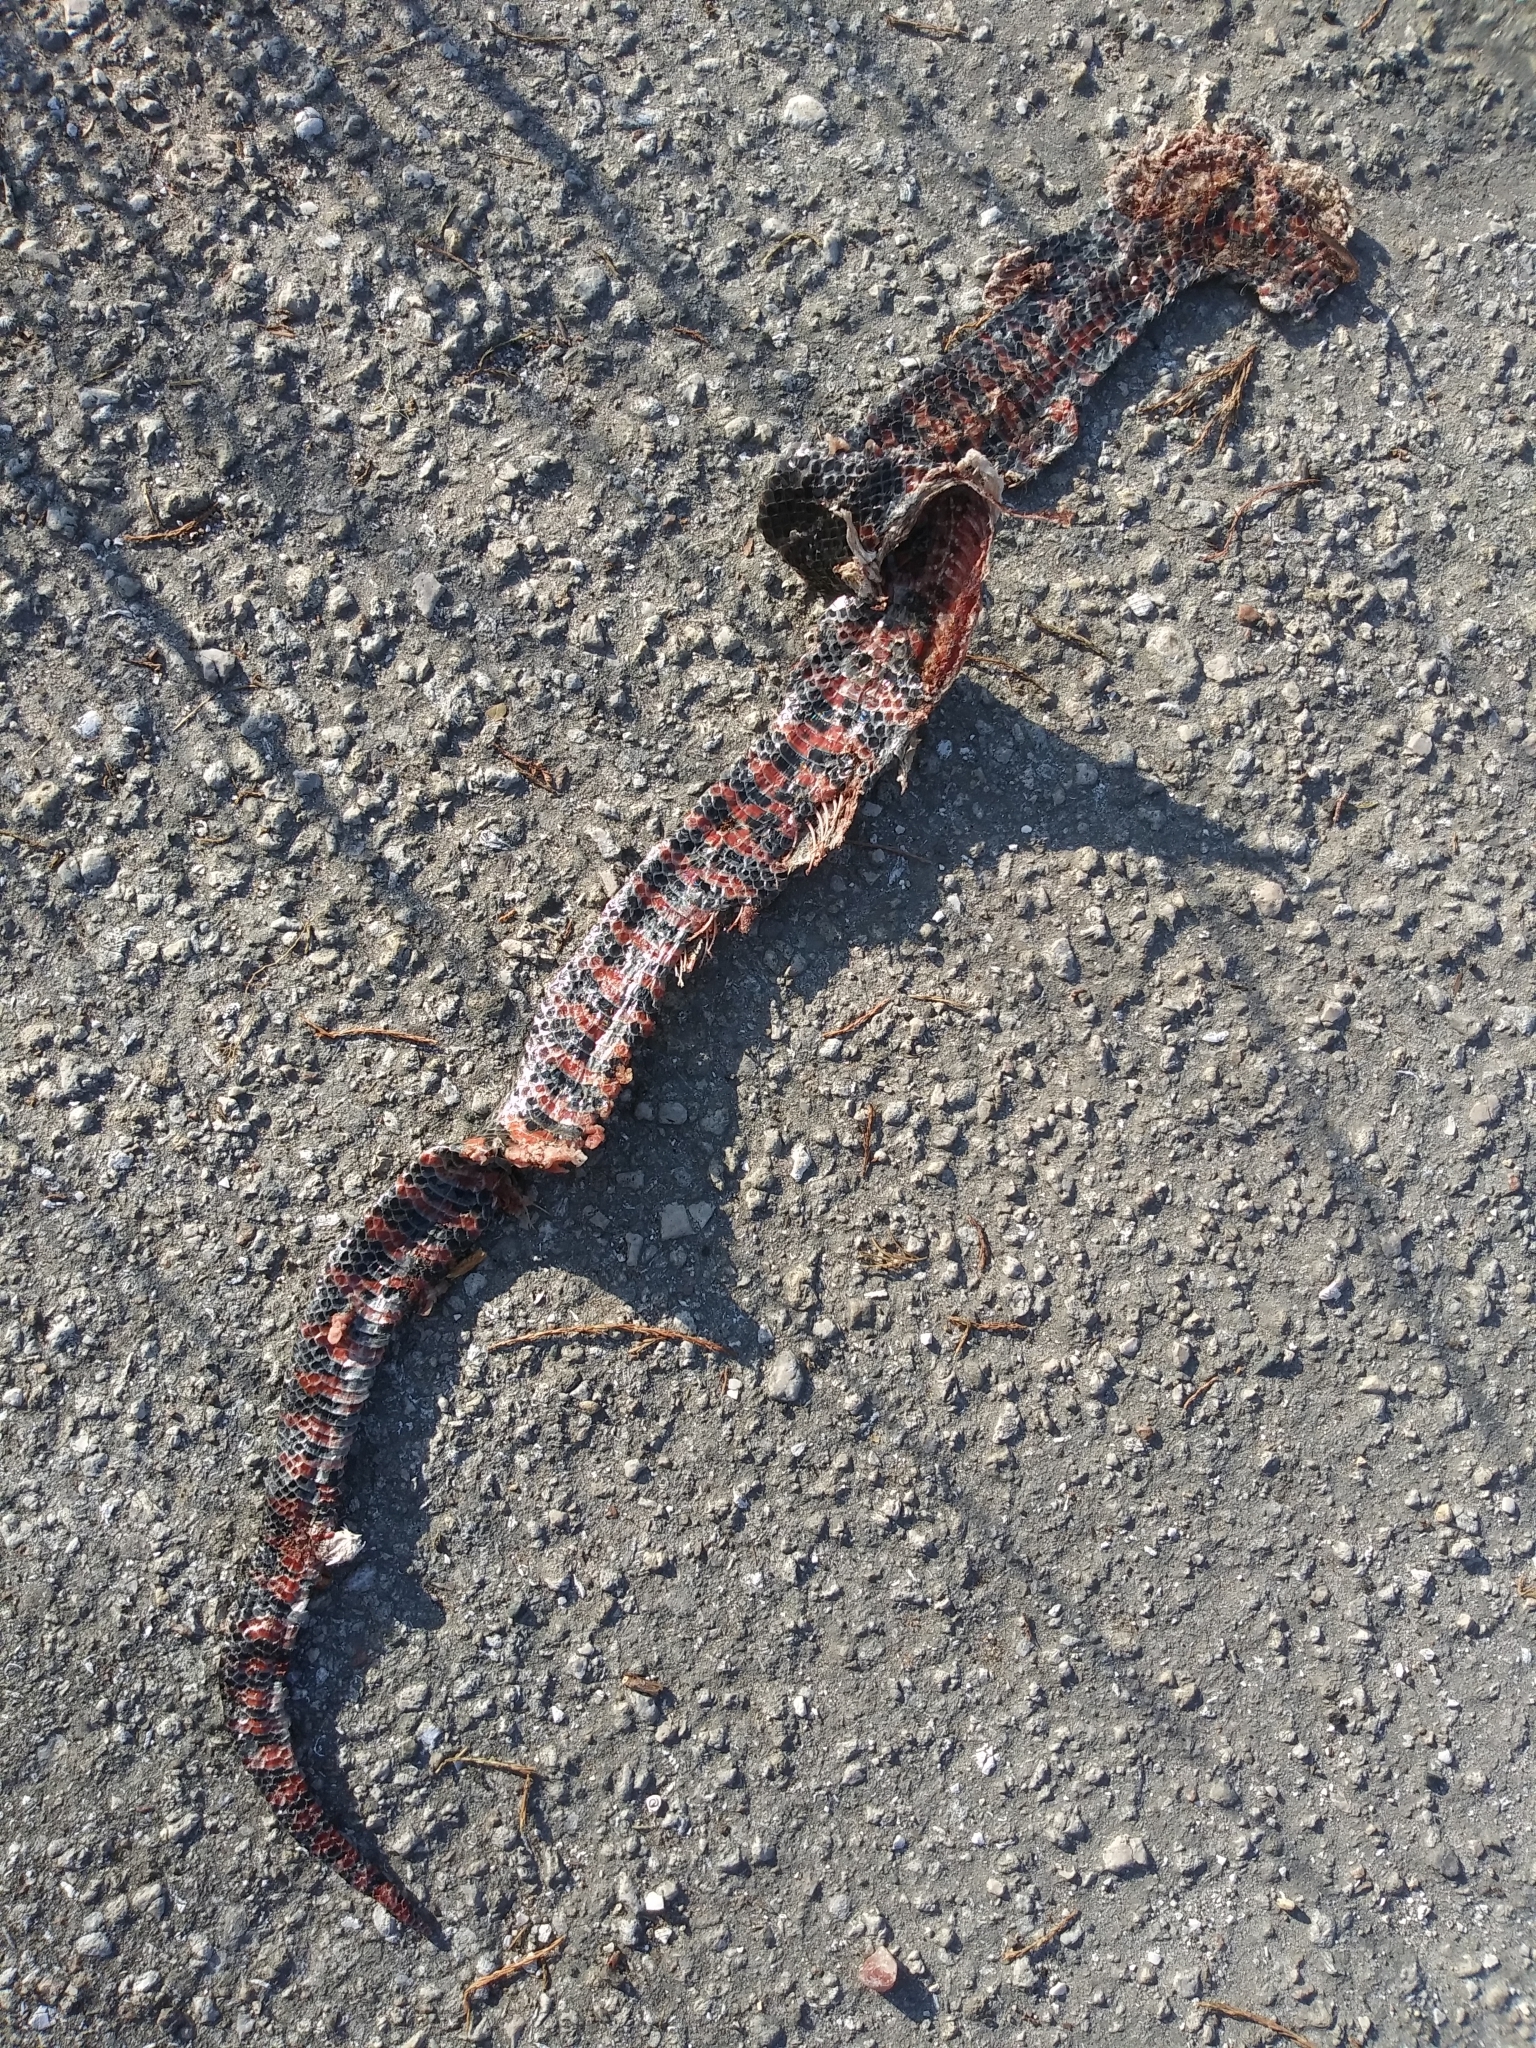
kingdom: Animalia
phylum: Chordata
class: Squamata
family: Colubridae
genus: Farancia
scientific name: Farancia abacura
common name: Mud snake
